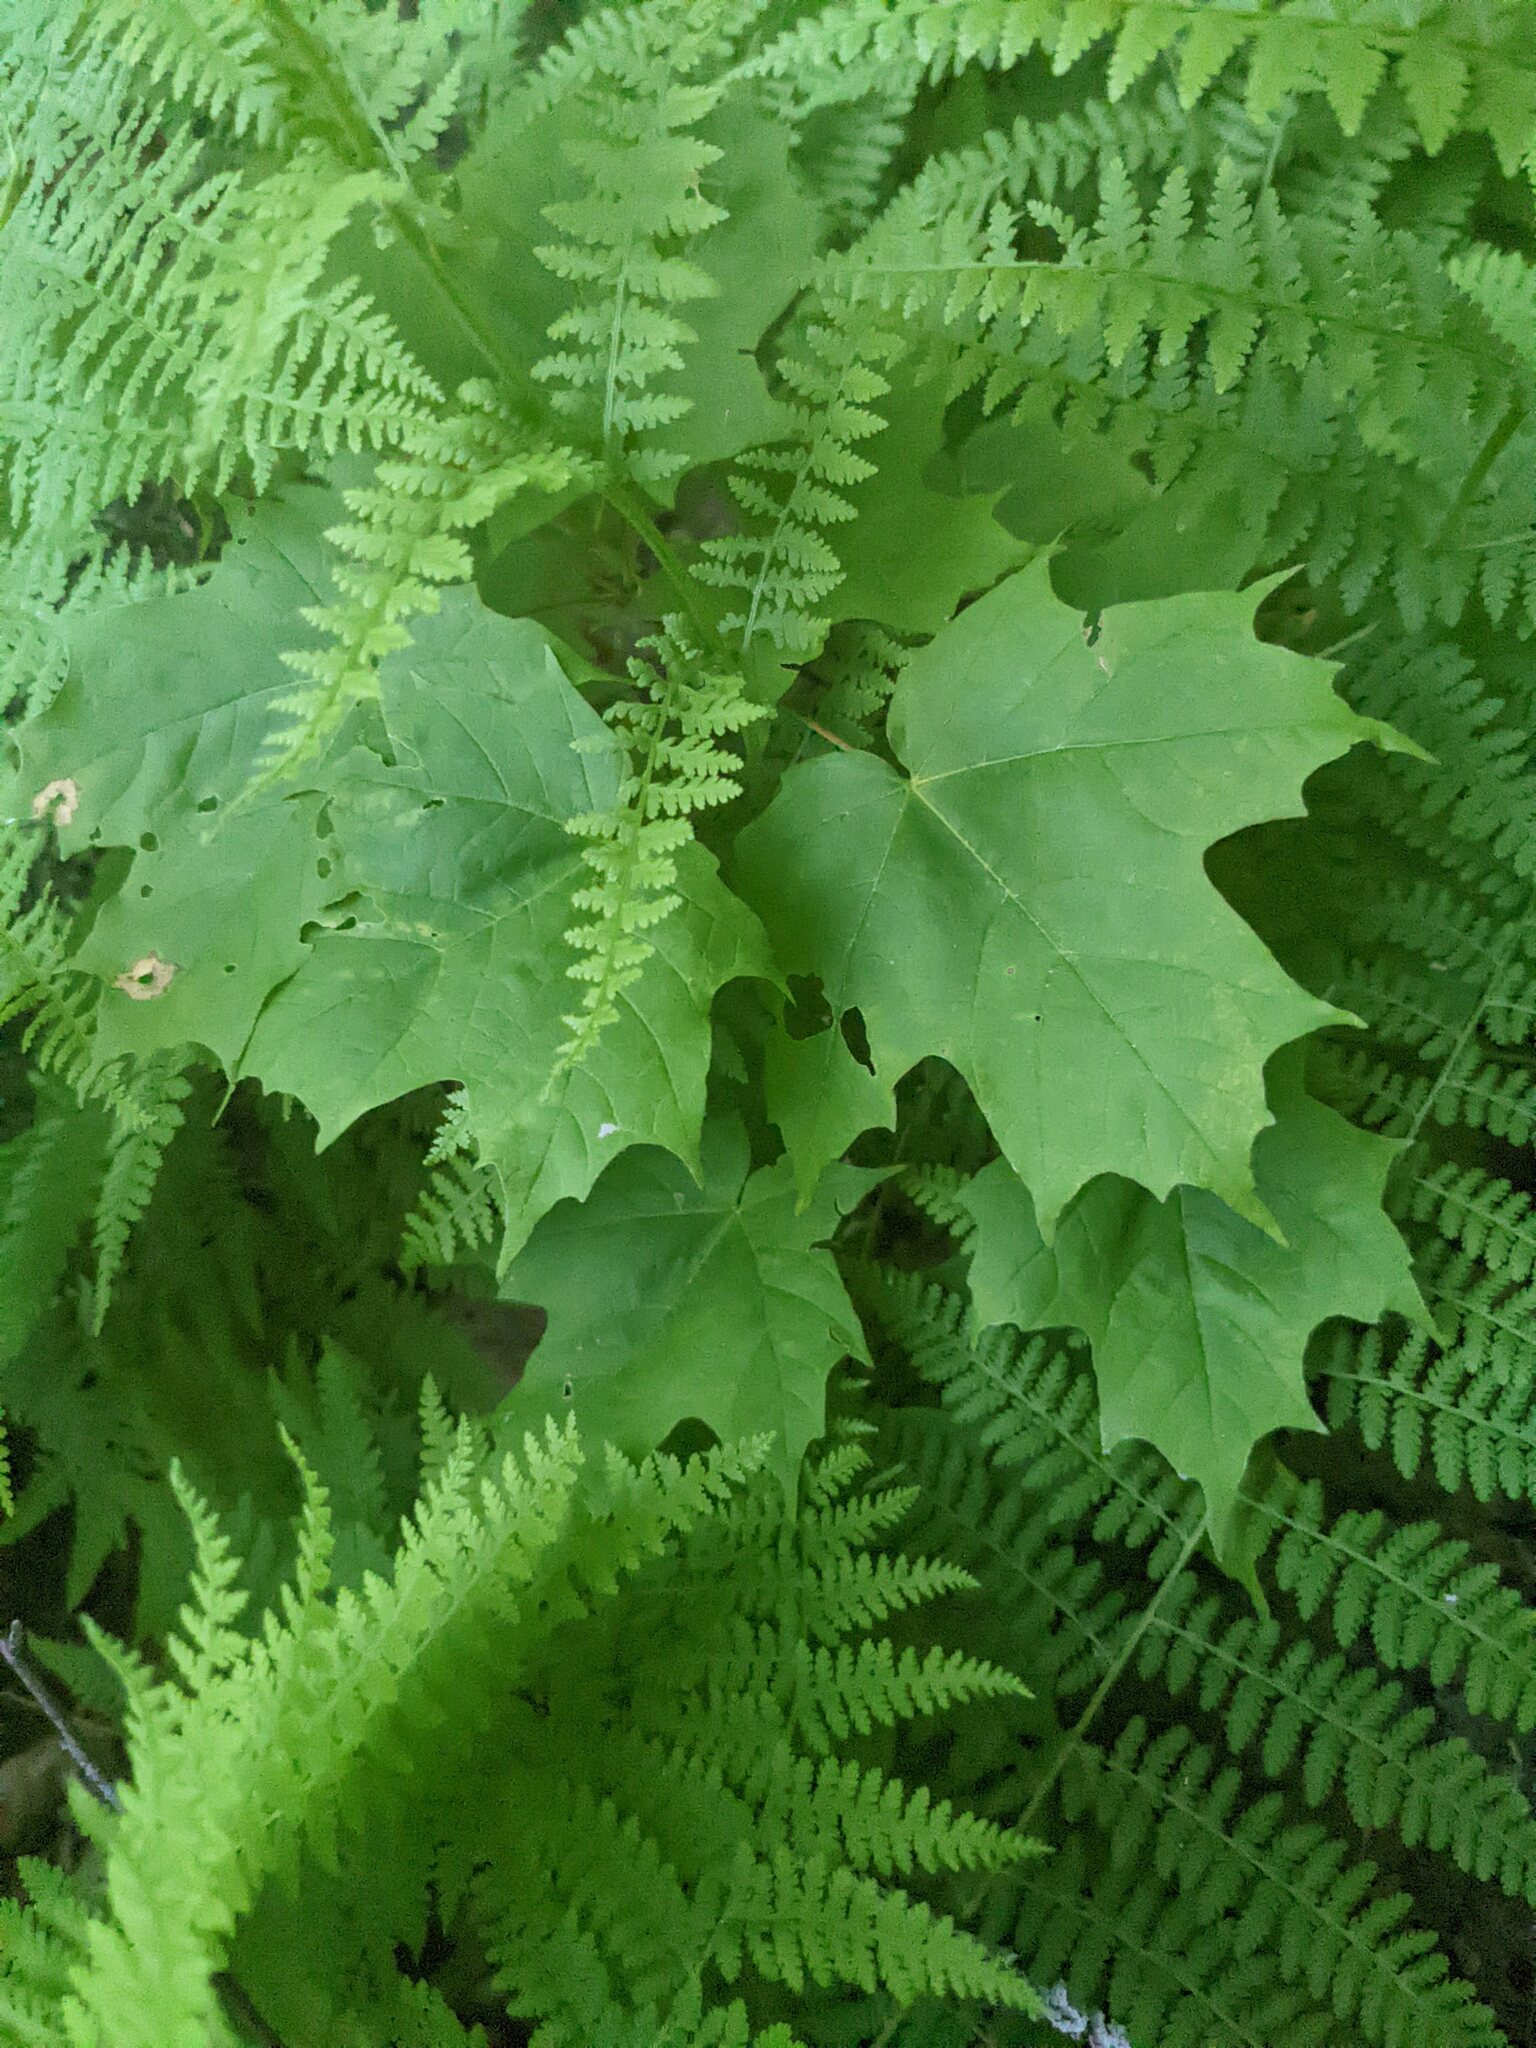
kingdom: Plantae
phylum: Tracheophyta
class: Magnoliopsida
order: Sapindales
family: Sapindaceae
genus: Acer
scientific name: Acer saccharum
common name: Sugar maple
